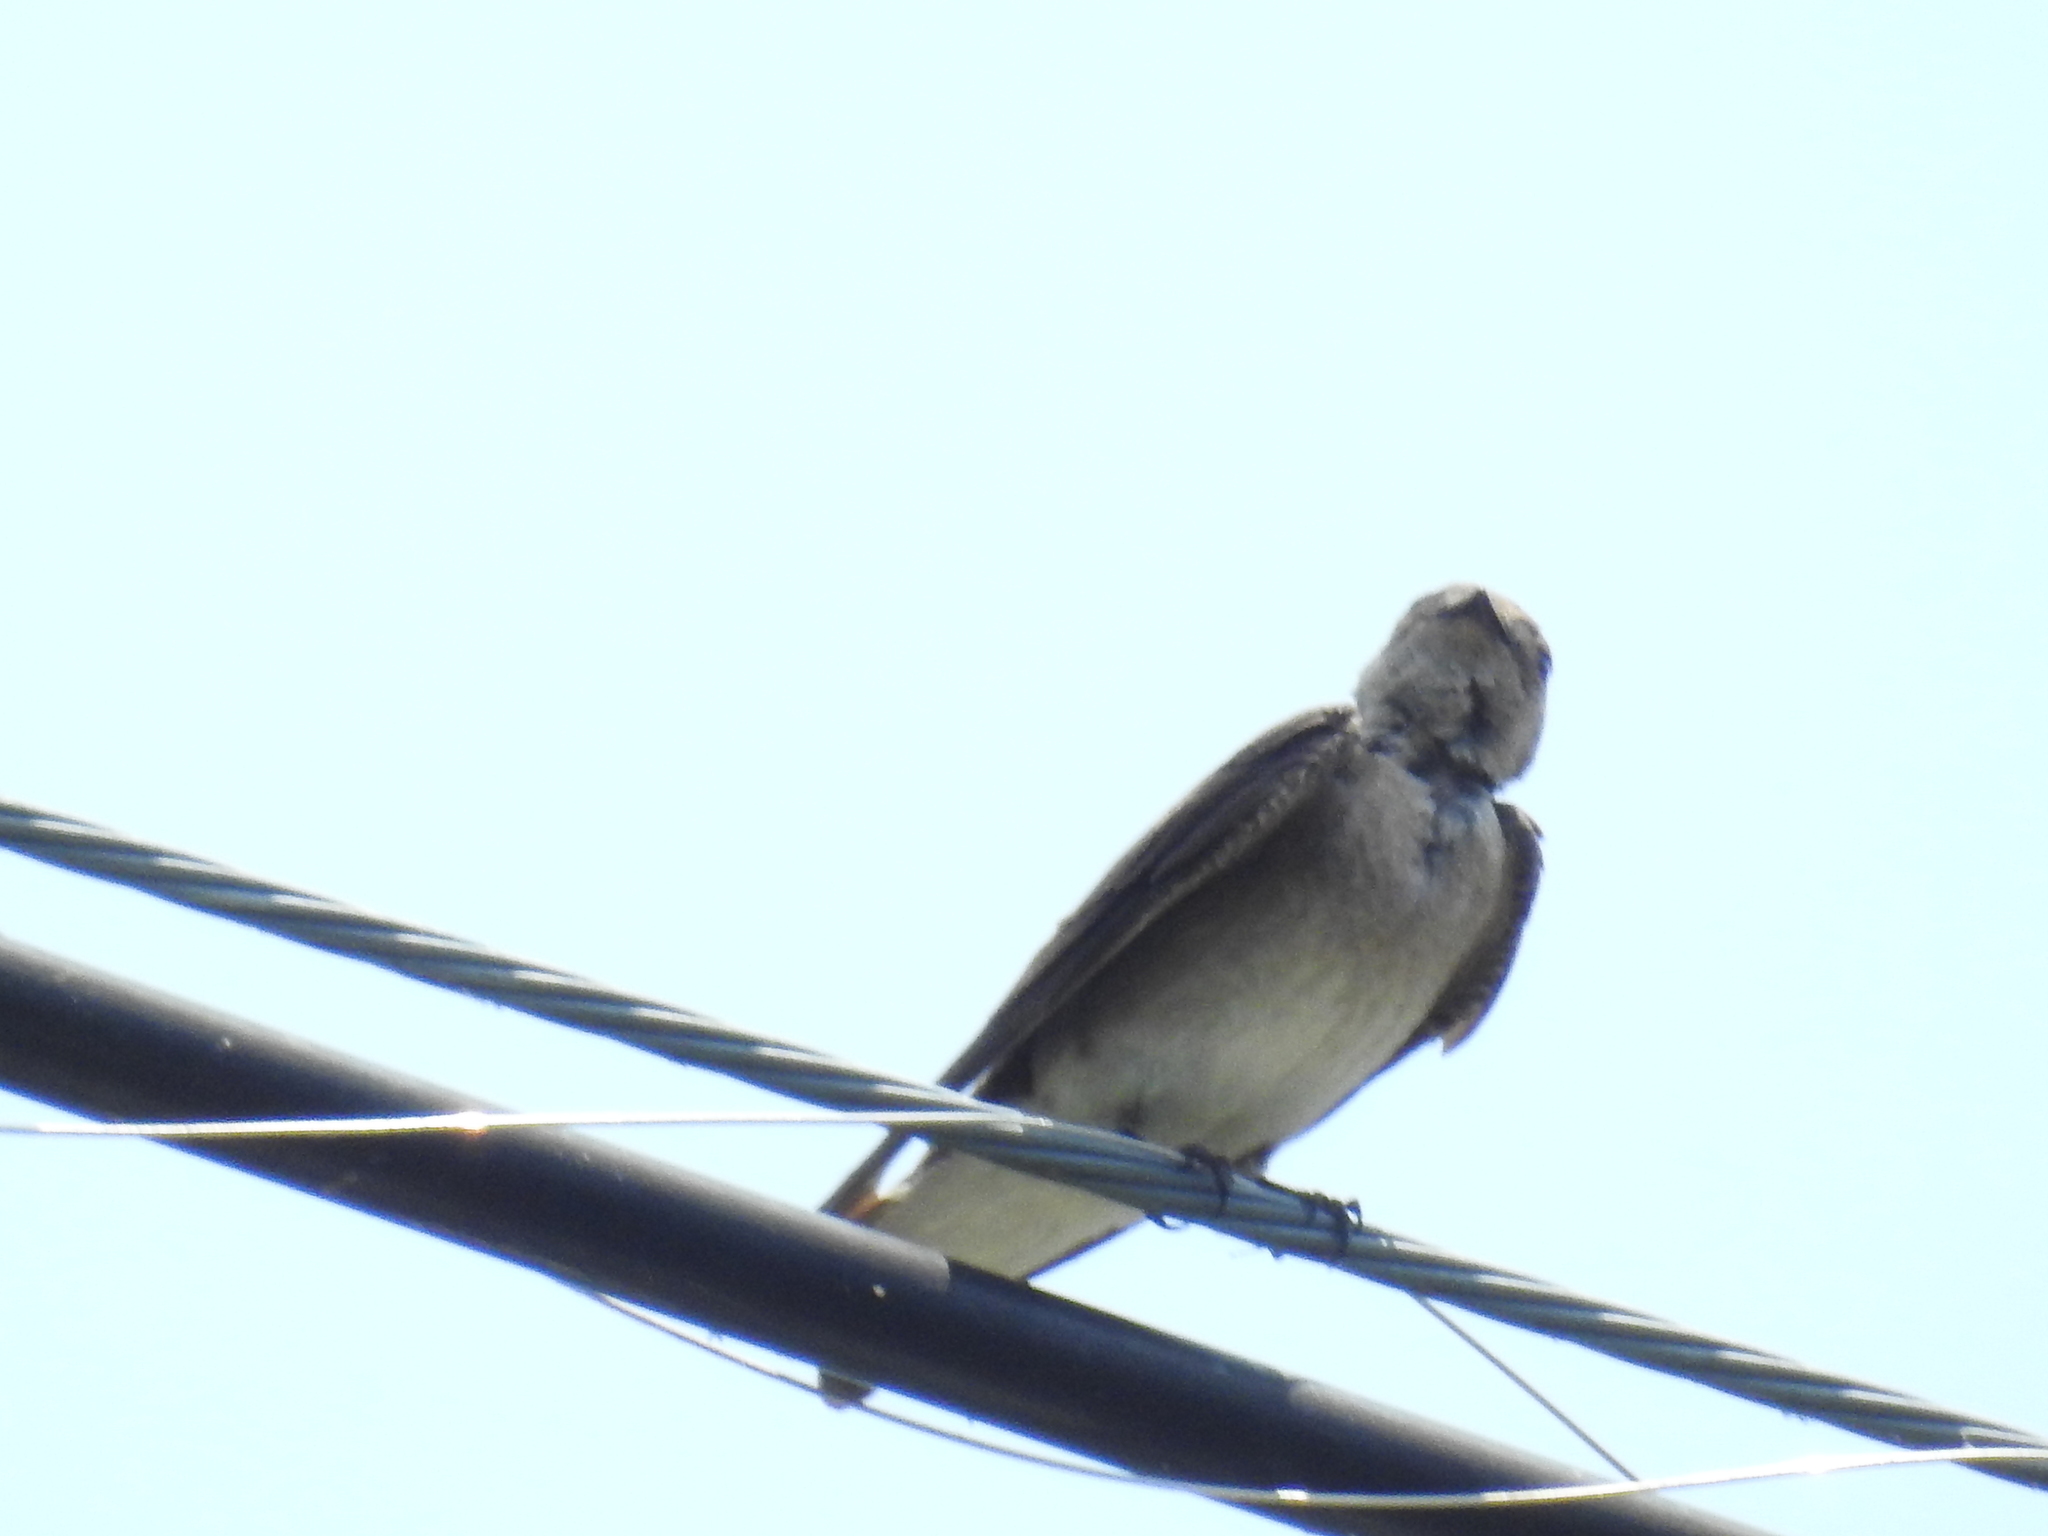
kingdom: Animalia
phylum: Chordata
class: Aves
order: Passeriformes
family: Hirundinidae
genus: Stelgidopteryx
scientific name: Stelgidopteryx serripennis
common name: Northern rough-winged swallow
